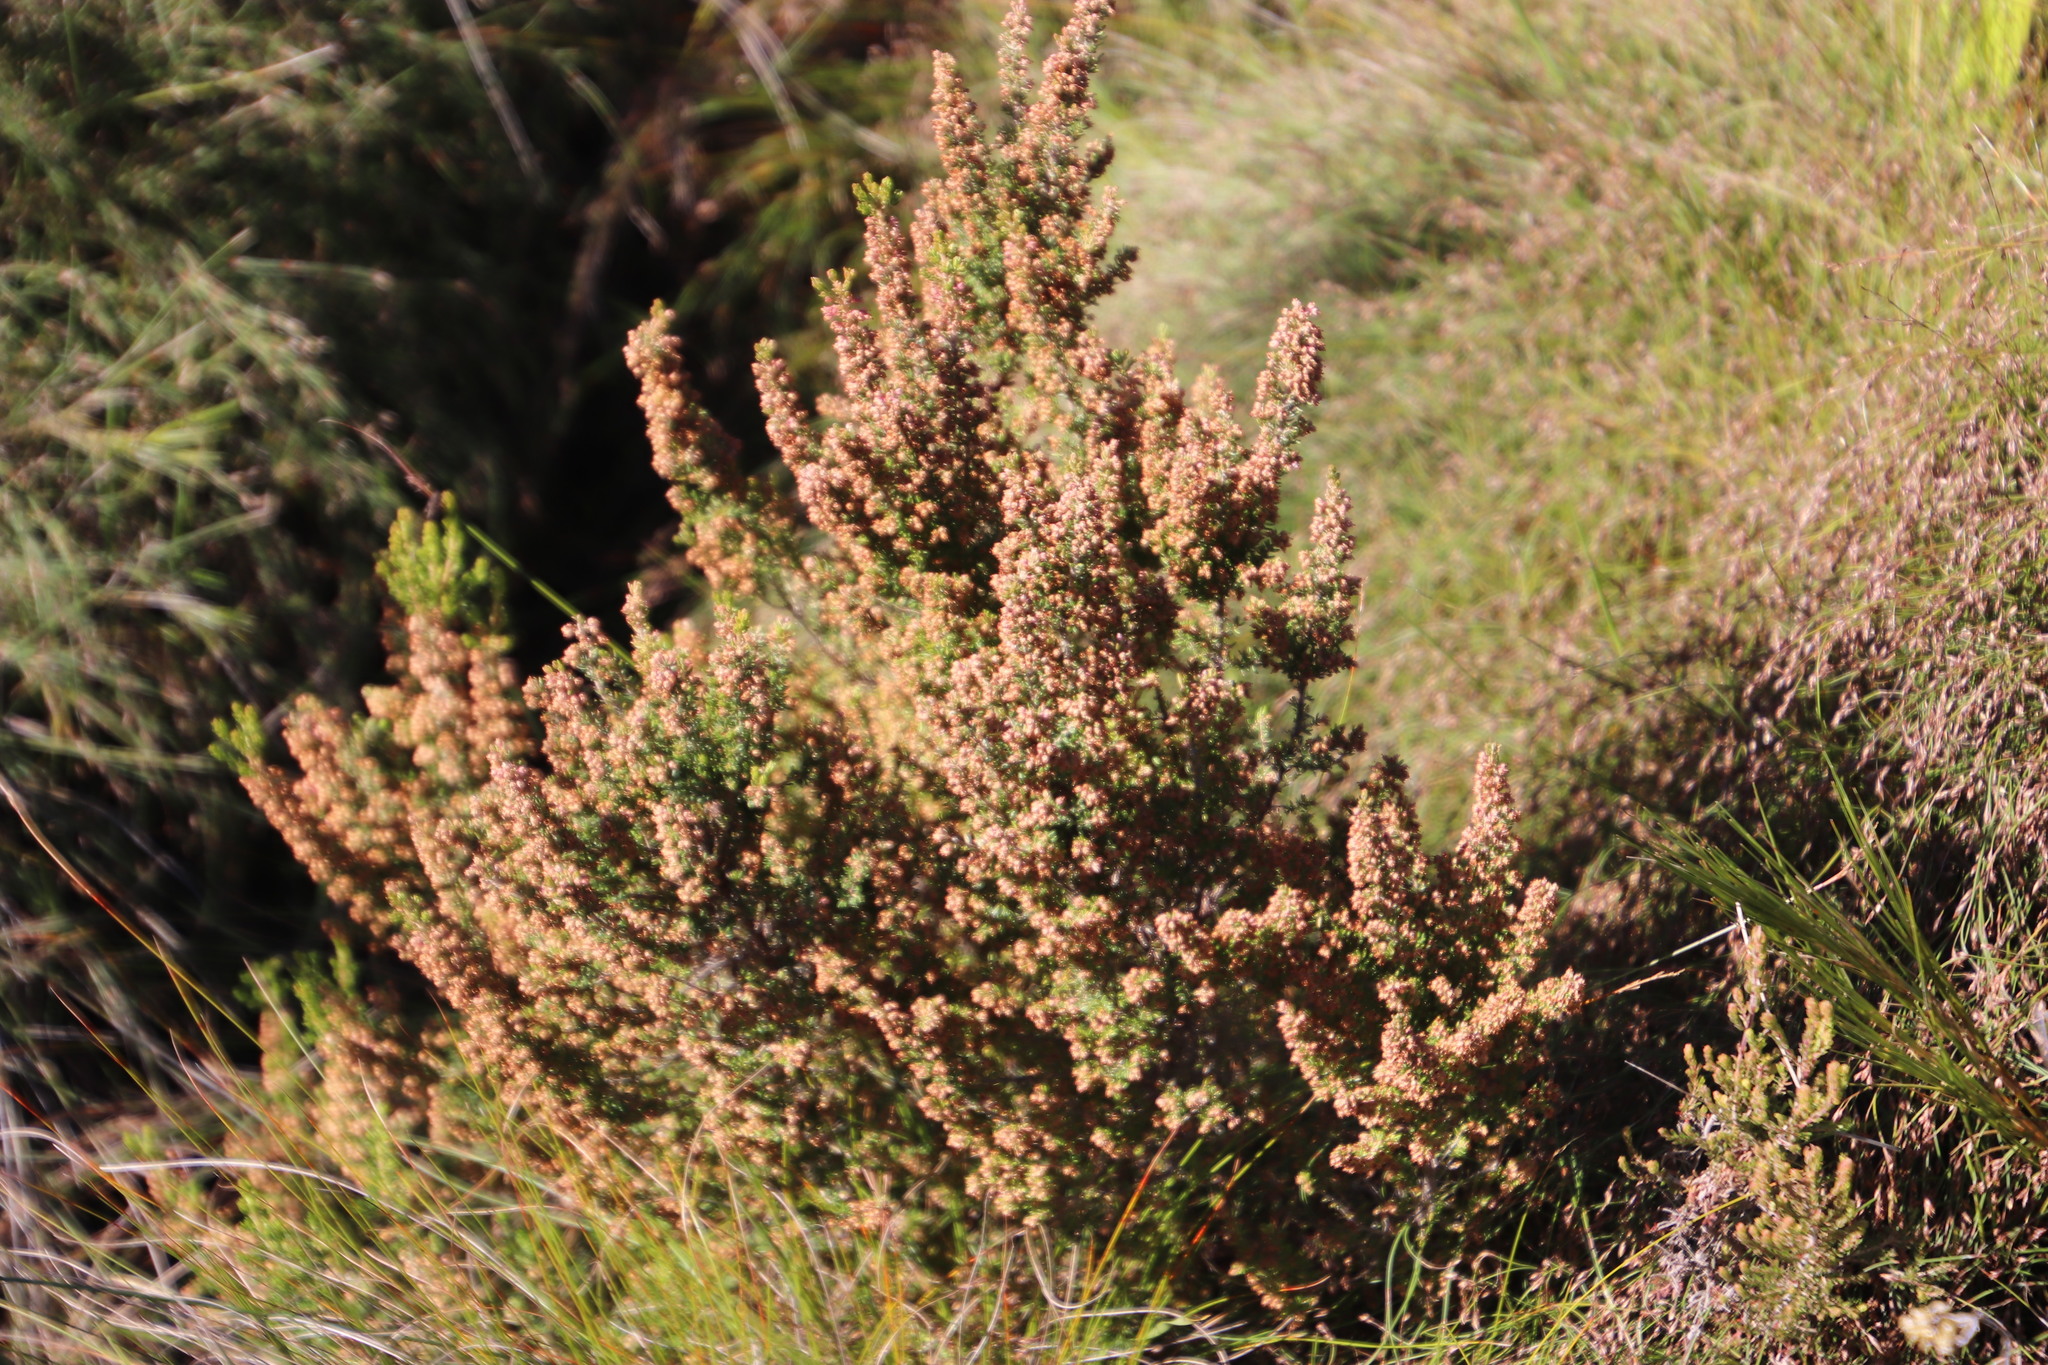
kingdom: Plantae
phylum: Tracheophyta
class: Magnoliopsida
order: Ericales
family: Ericaceae
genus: Erica
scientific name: Erica hispidula
